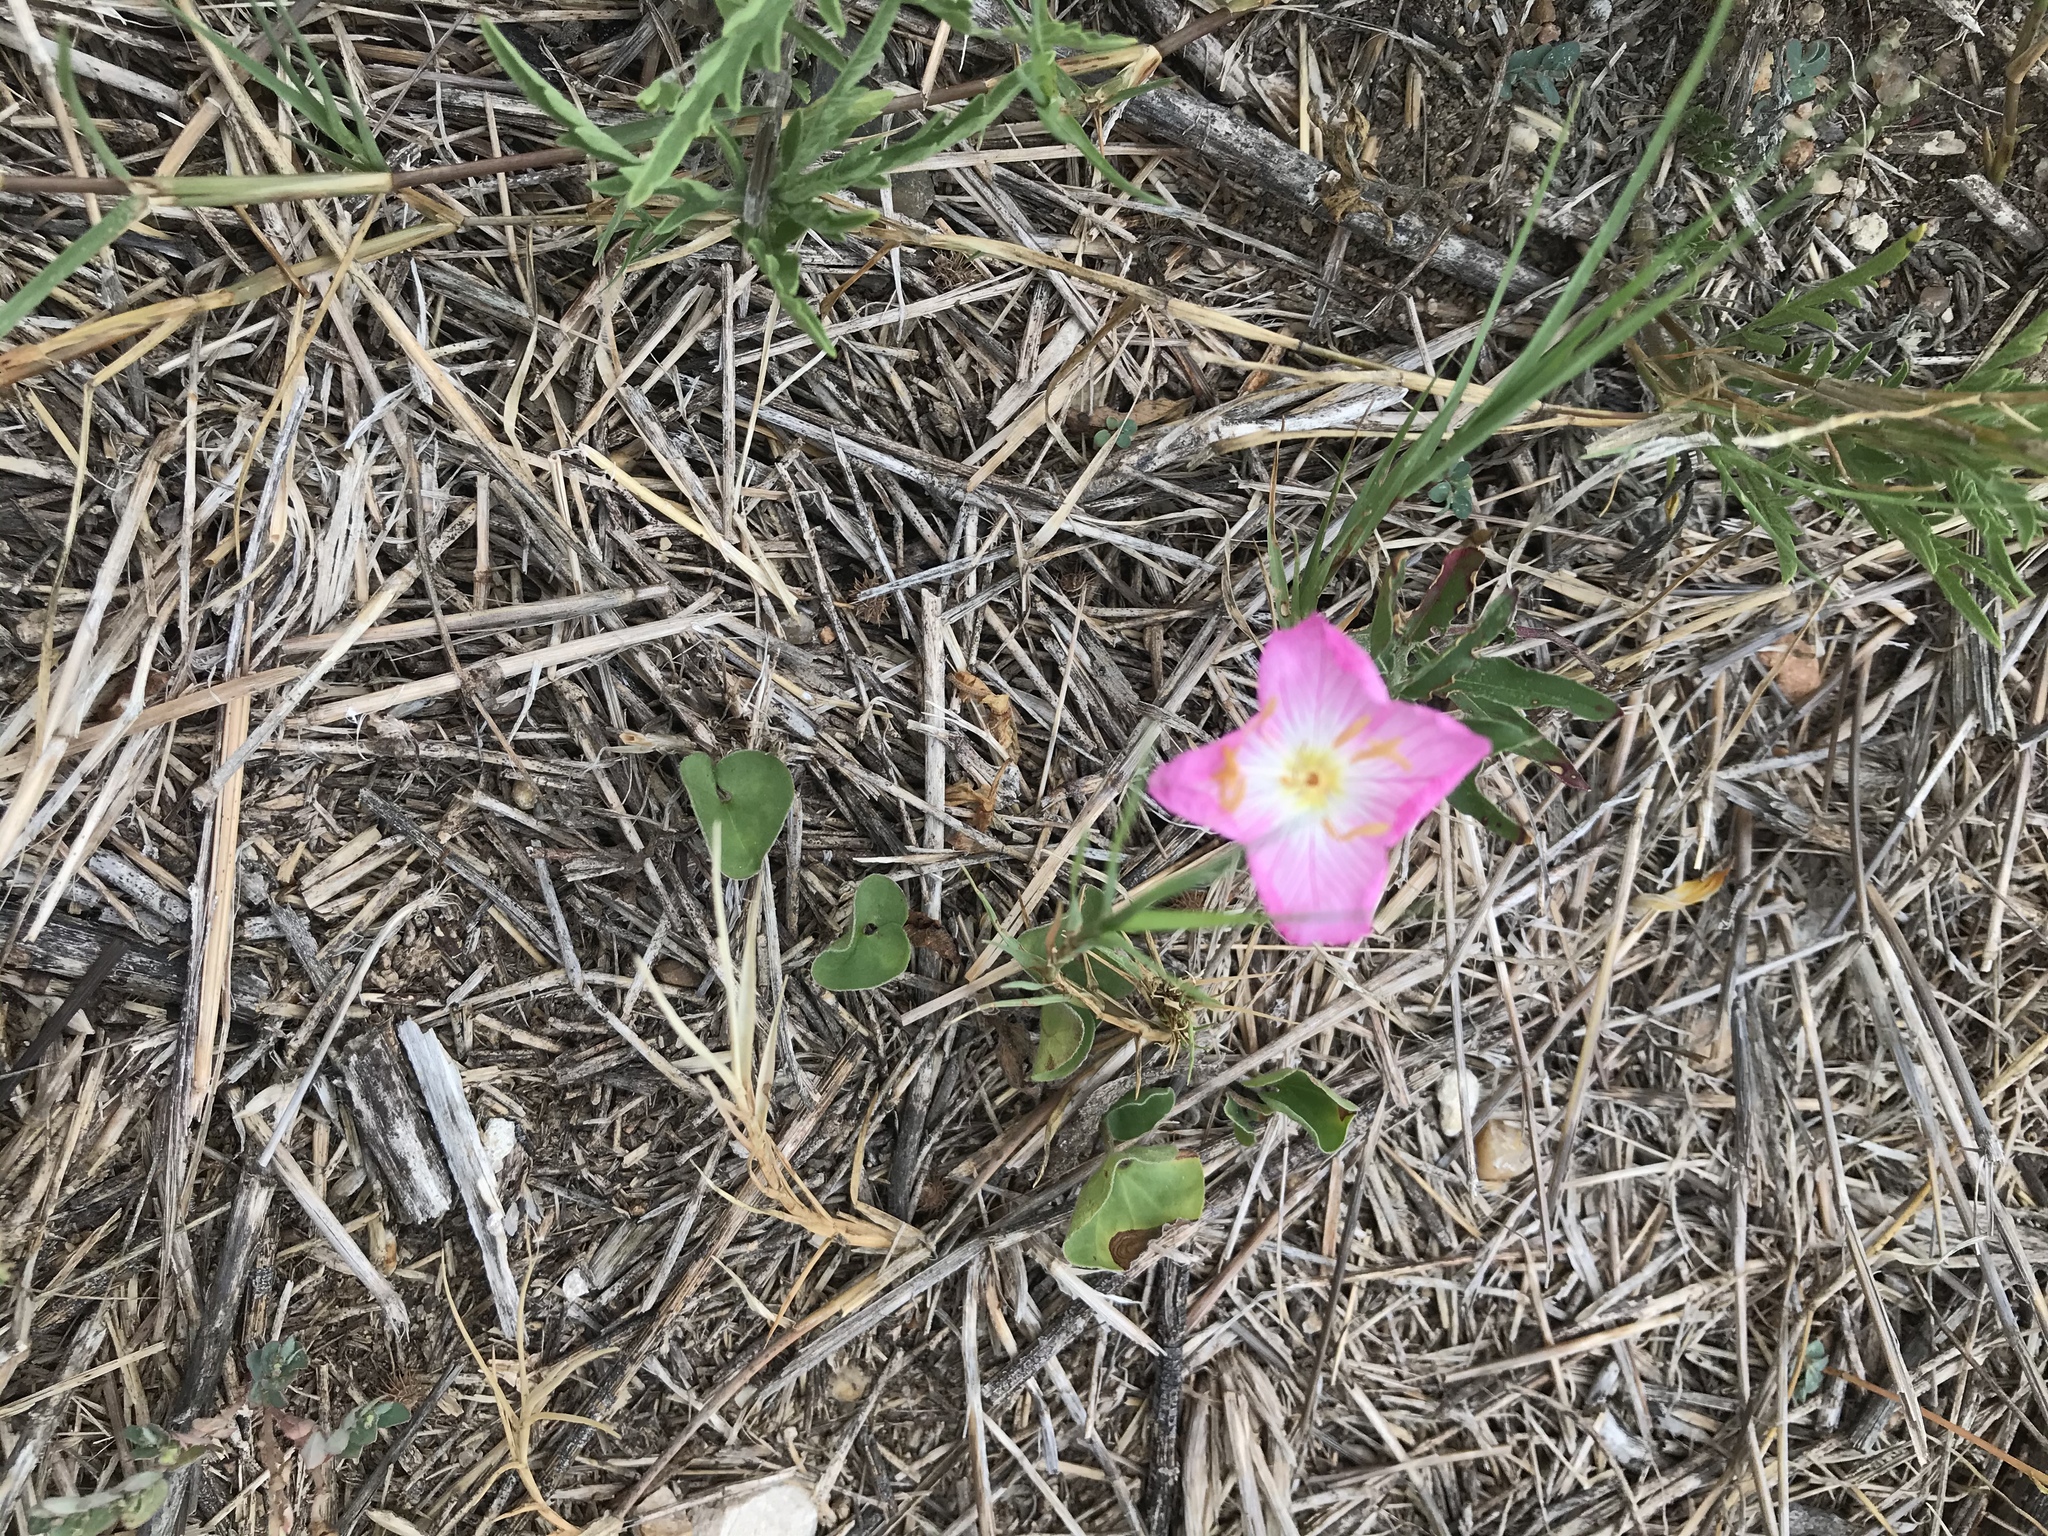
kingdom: Plantae
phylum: Tracheophyta
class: Magnoliopsida
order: Myrtales
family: Onagraceae
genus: Oenothera
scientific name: Oenothera speciosa
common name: White evening-primrose
